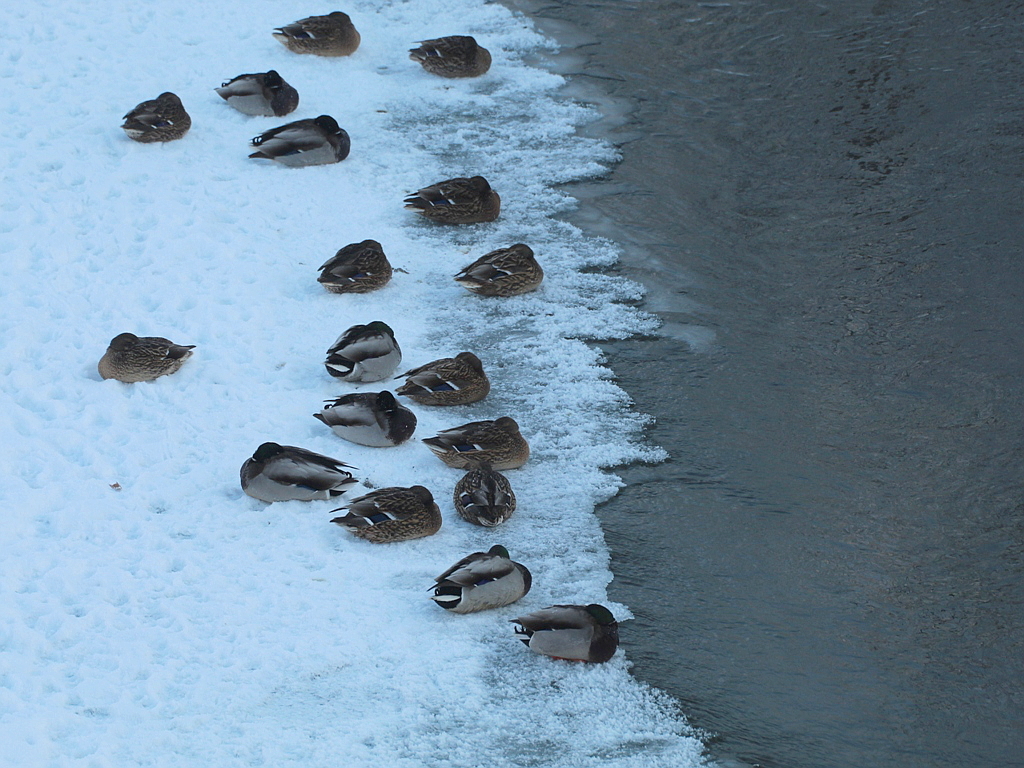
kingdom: Animalia
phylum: Chordata
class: Aves
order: Anseriformes
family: Anatidae
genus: Anas
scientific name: Anas platyrhynchos
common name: Mallard
